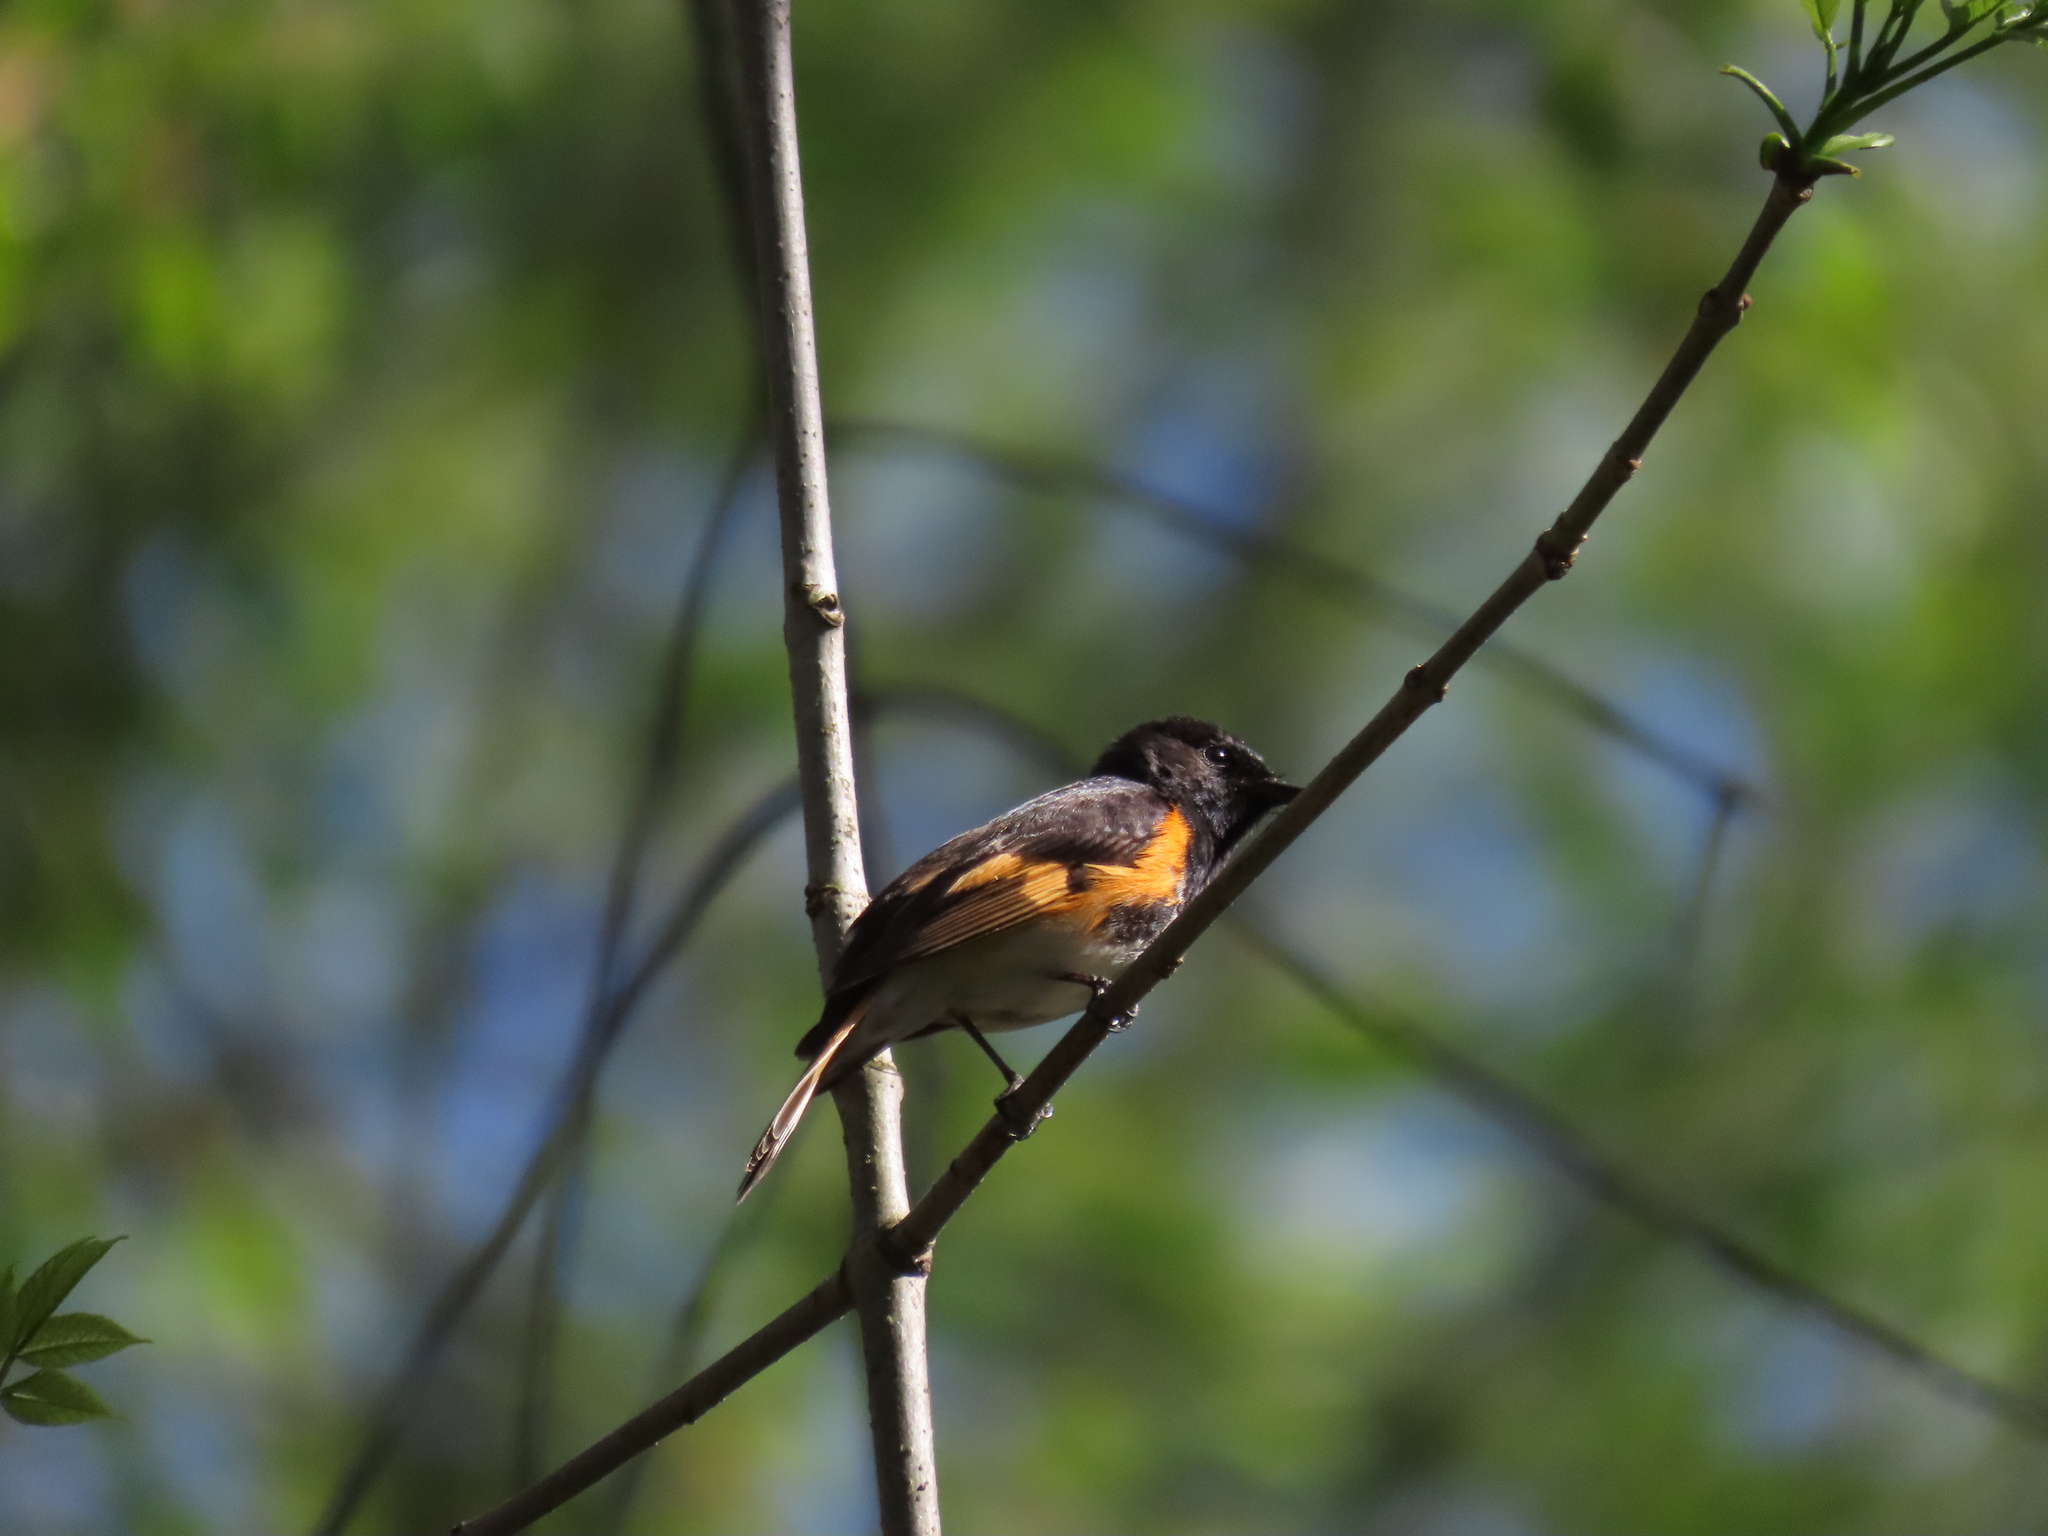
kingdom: Animalia
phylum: Chordata
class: Aves
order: Passeriformes
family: Parulidae
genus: Setophaga
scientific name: Setophaga ruticilla
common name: American redstart
